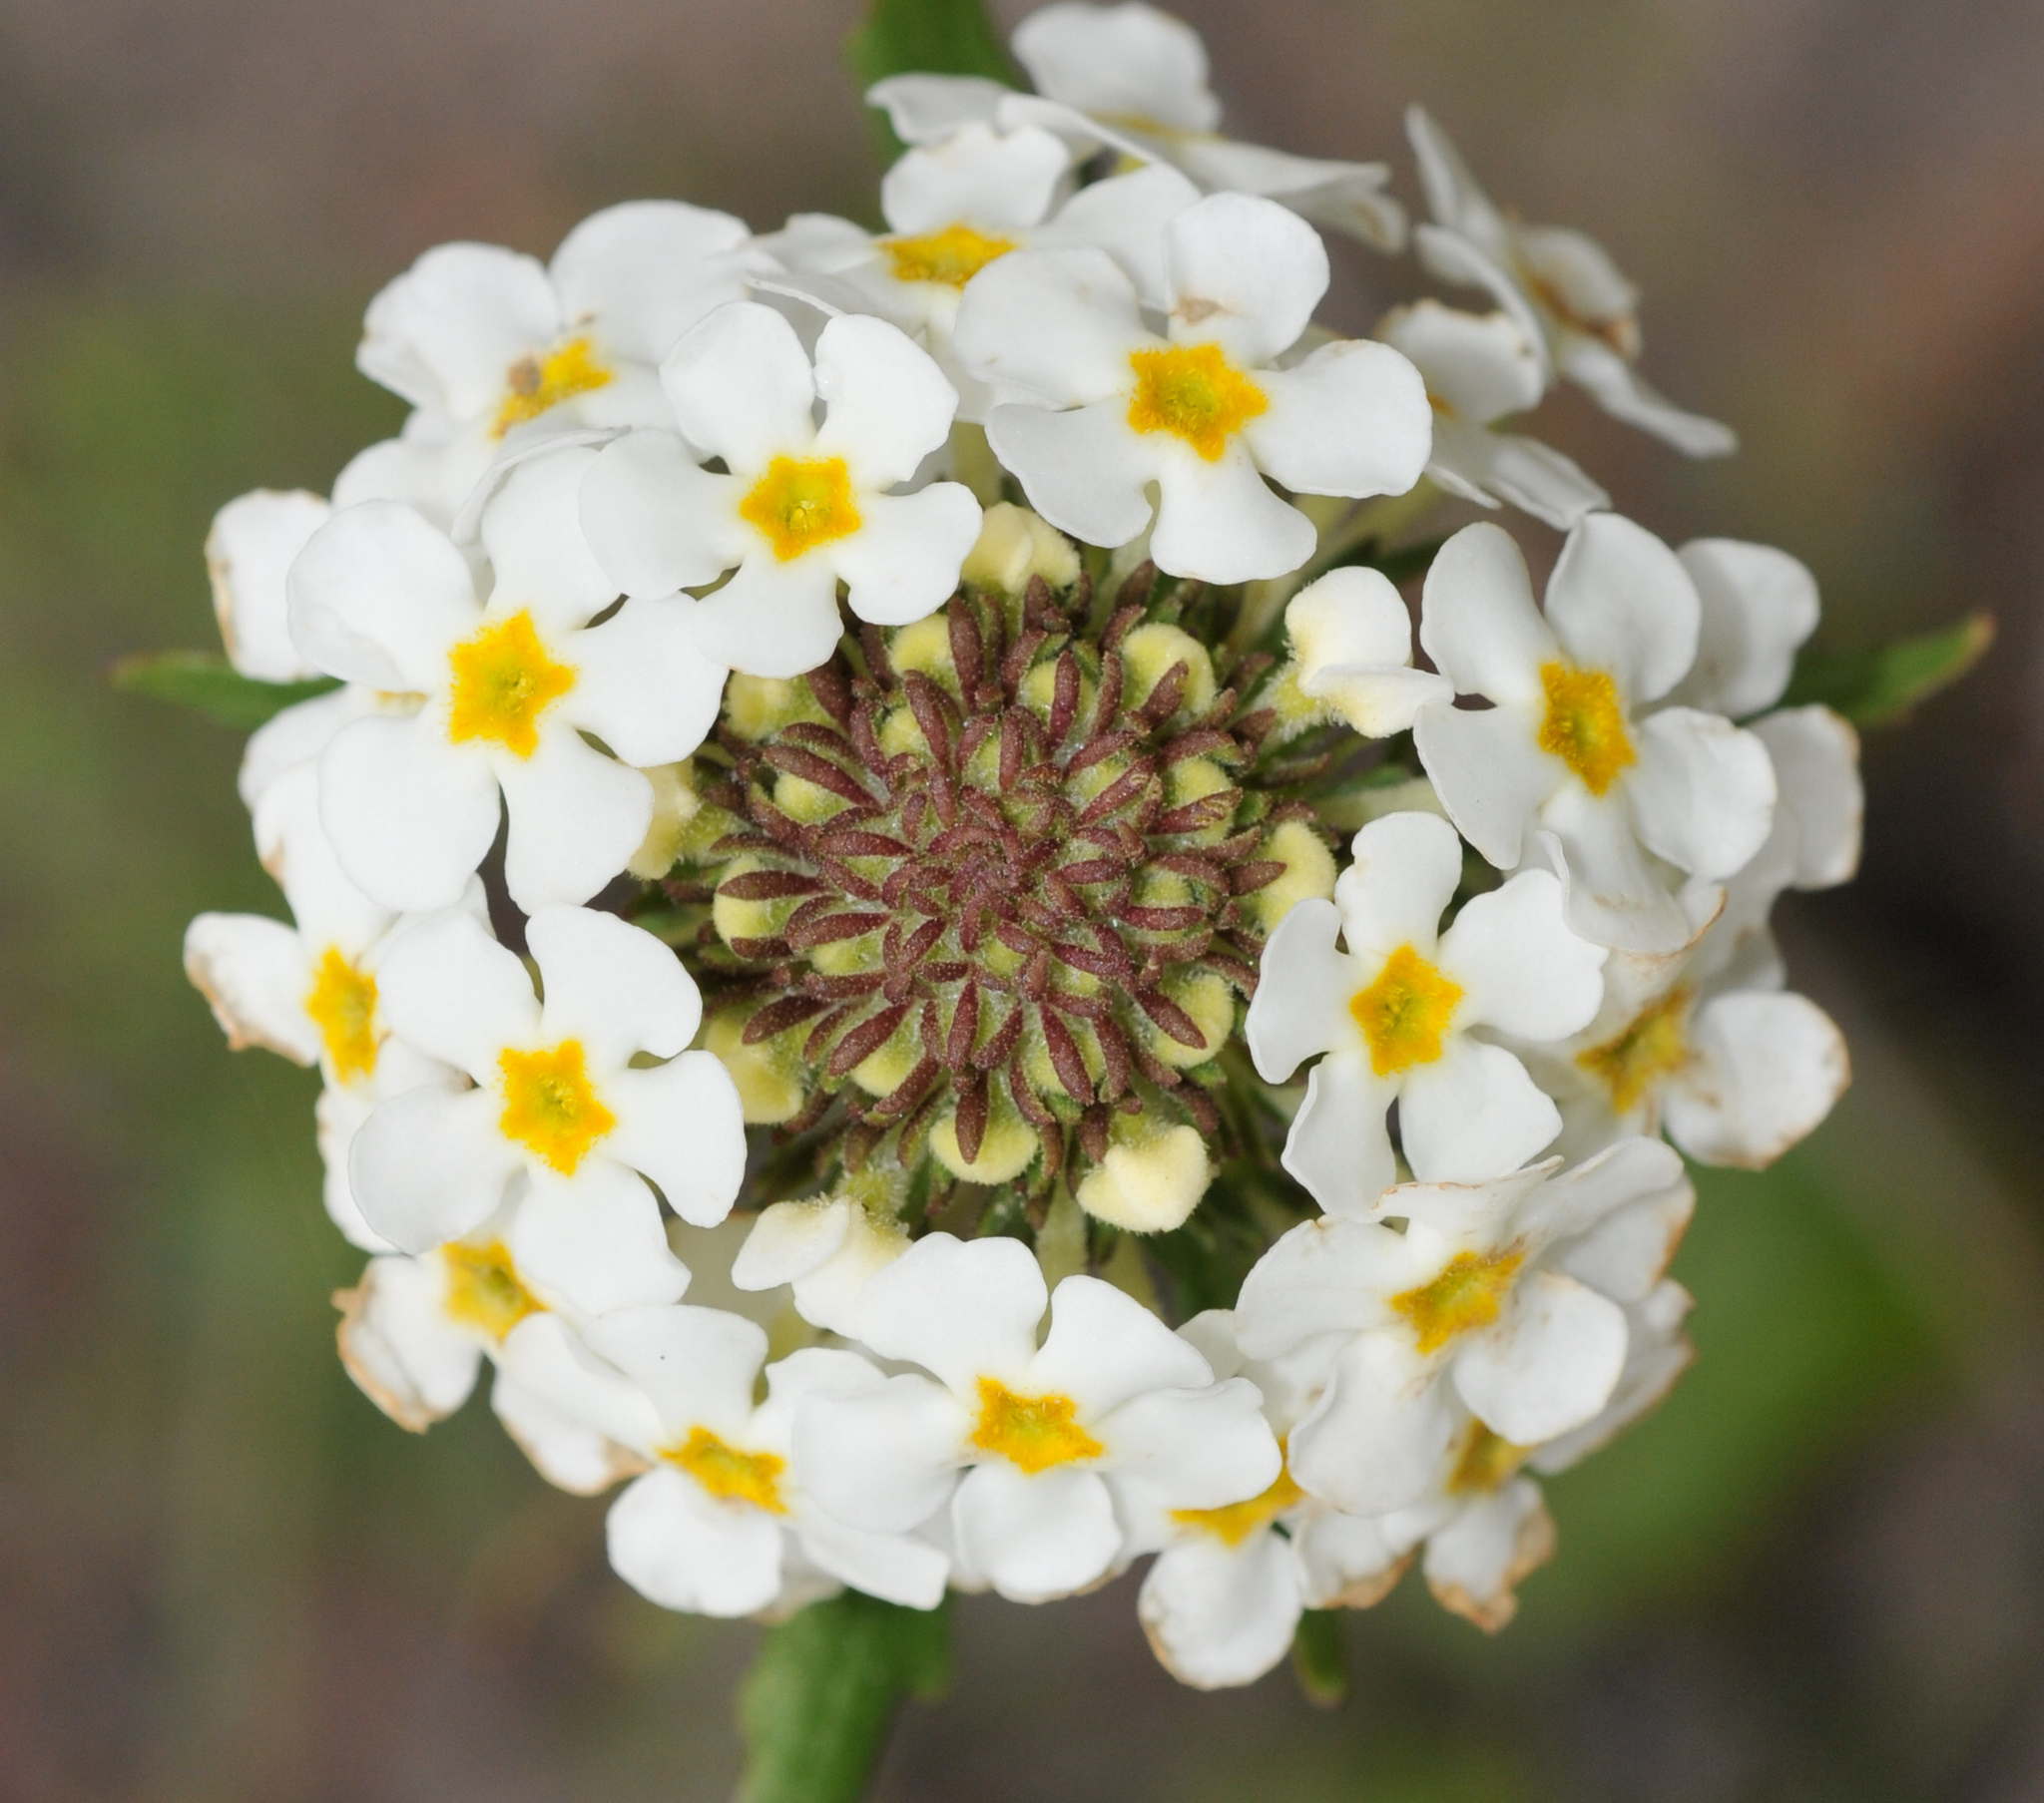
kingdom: Plantae
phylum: Tracheophyta
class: Magnoliopsida
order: Lamiales
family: Scrophulariaceae
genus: Manulea
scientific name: Manulea corymbosa
